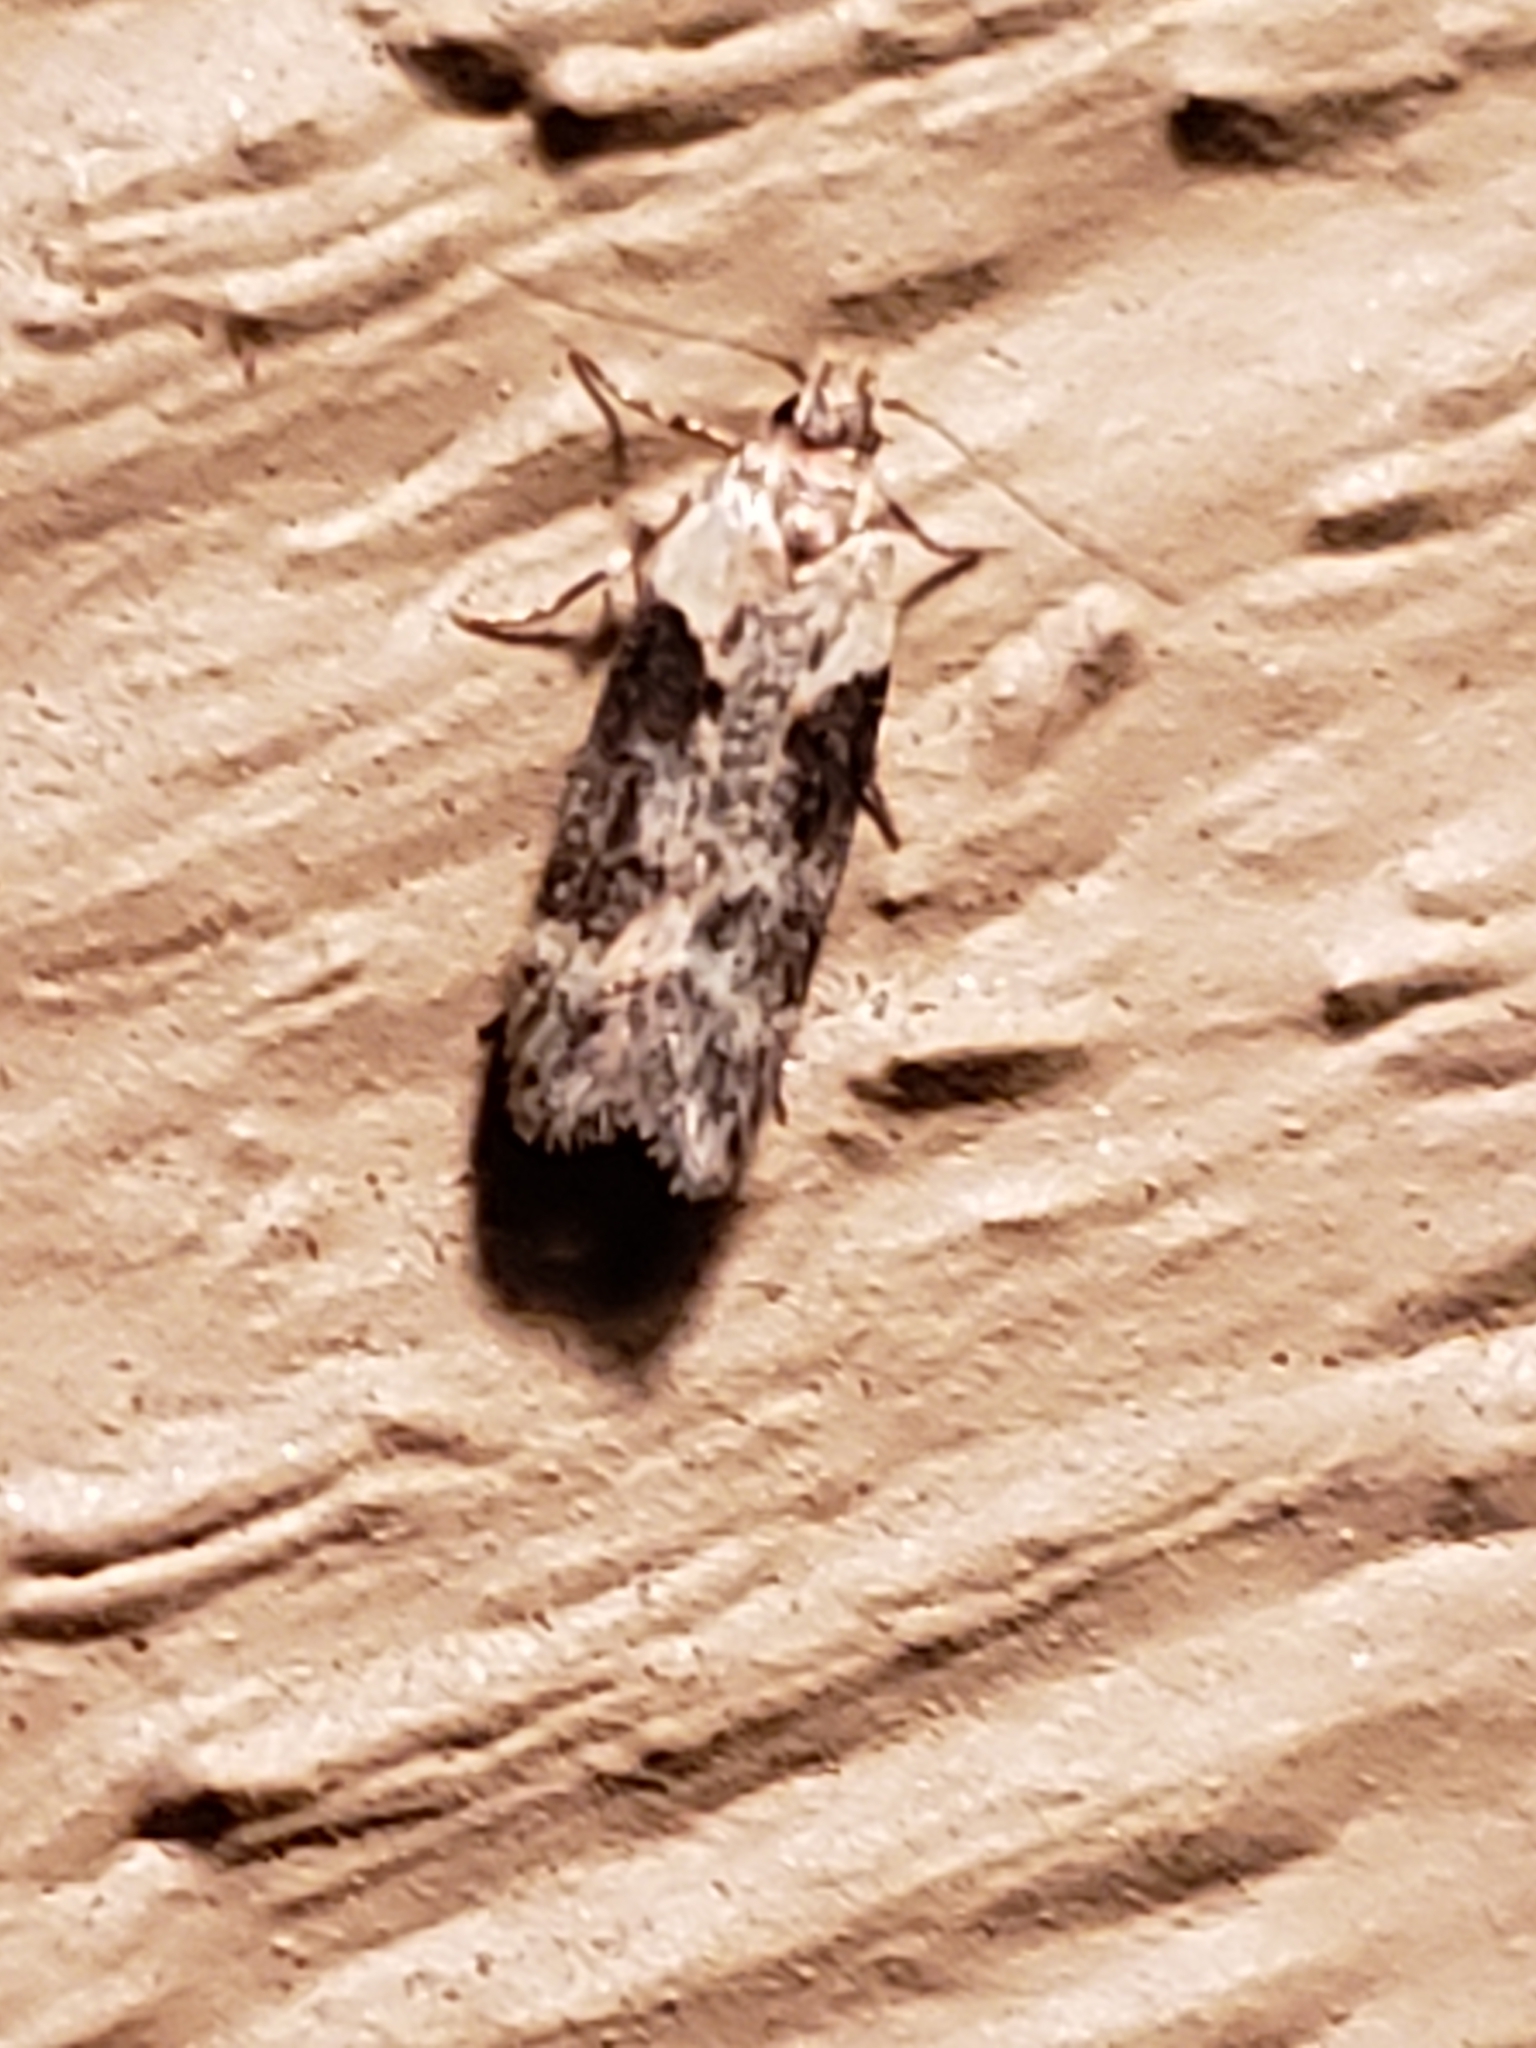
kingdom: Animalia
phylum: Arthropoda
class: Insecta
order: Lepidoptera
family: Gelechiidae
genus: Chionodes
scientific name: Chionodes mediofuscella
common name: Black-smudged chionodes moth
